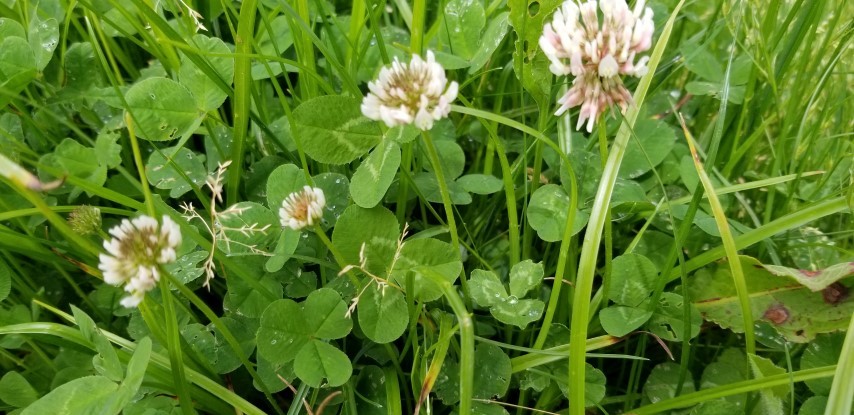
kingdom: Plantae
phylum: Tracheophyta
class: Magnoliopsida
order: Fabales
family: Fabaceae
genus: Trifolium
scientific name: Trifolium repens
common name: White clover
